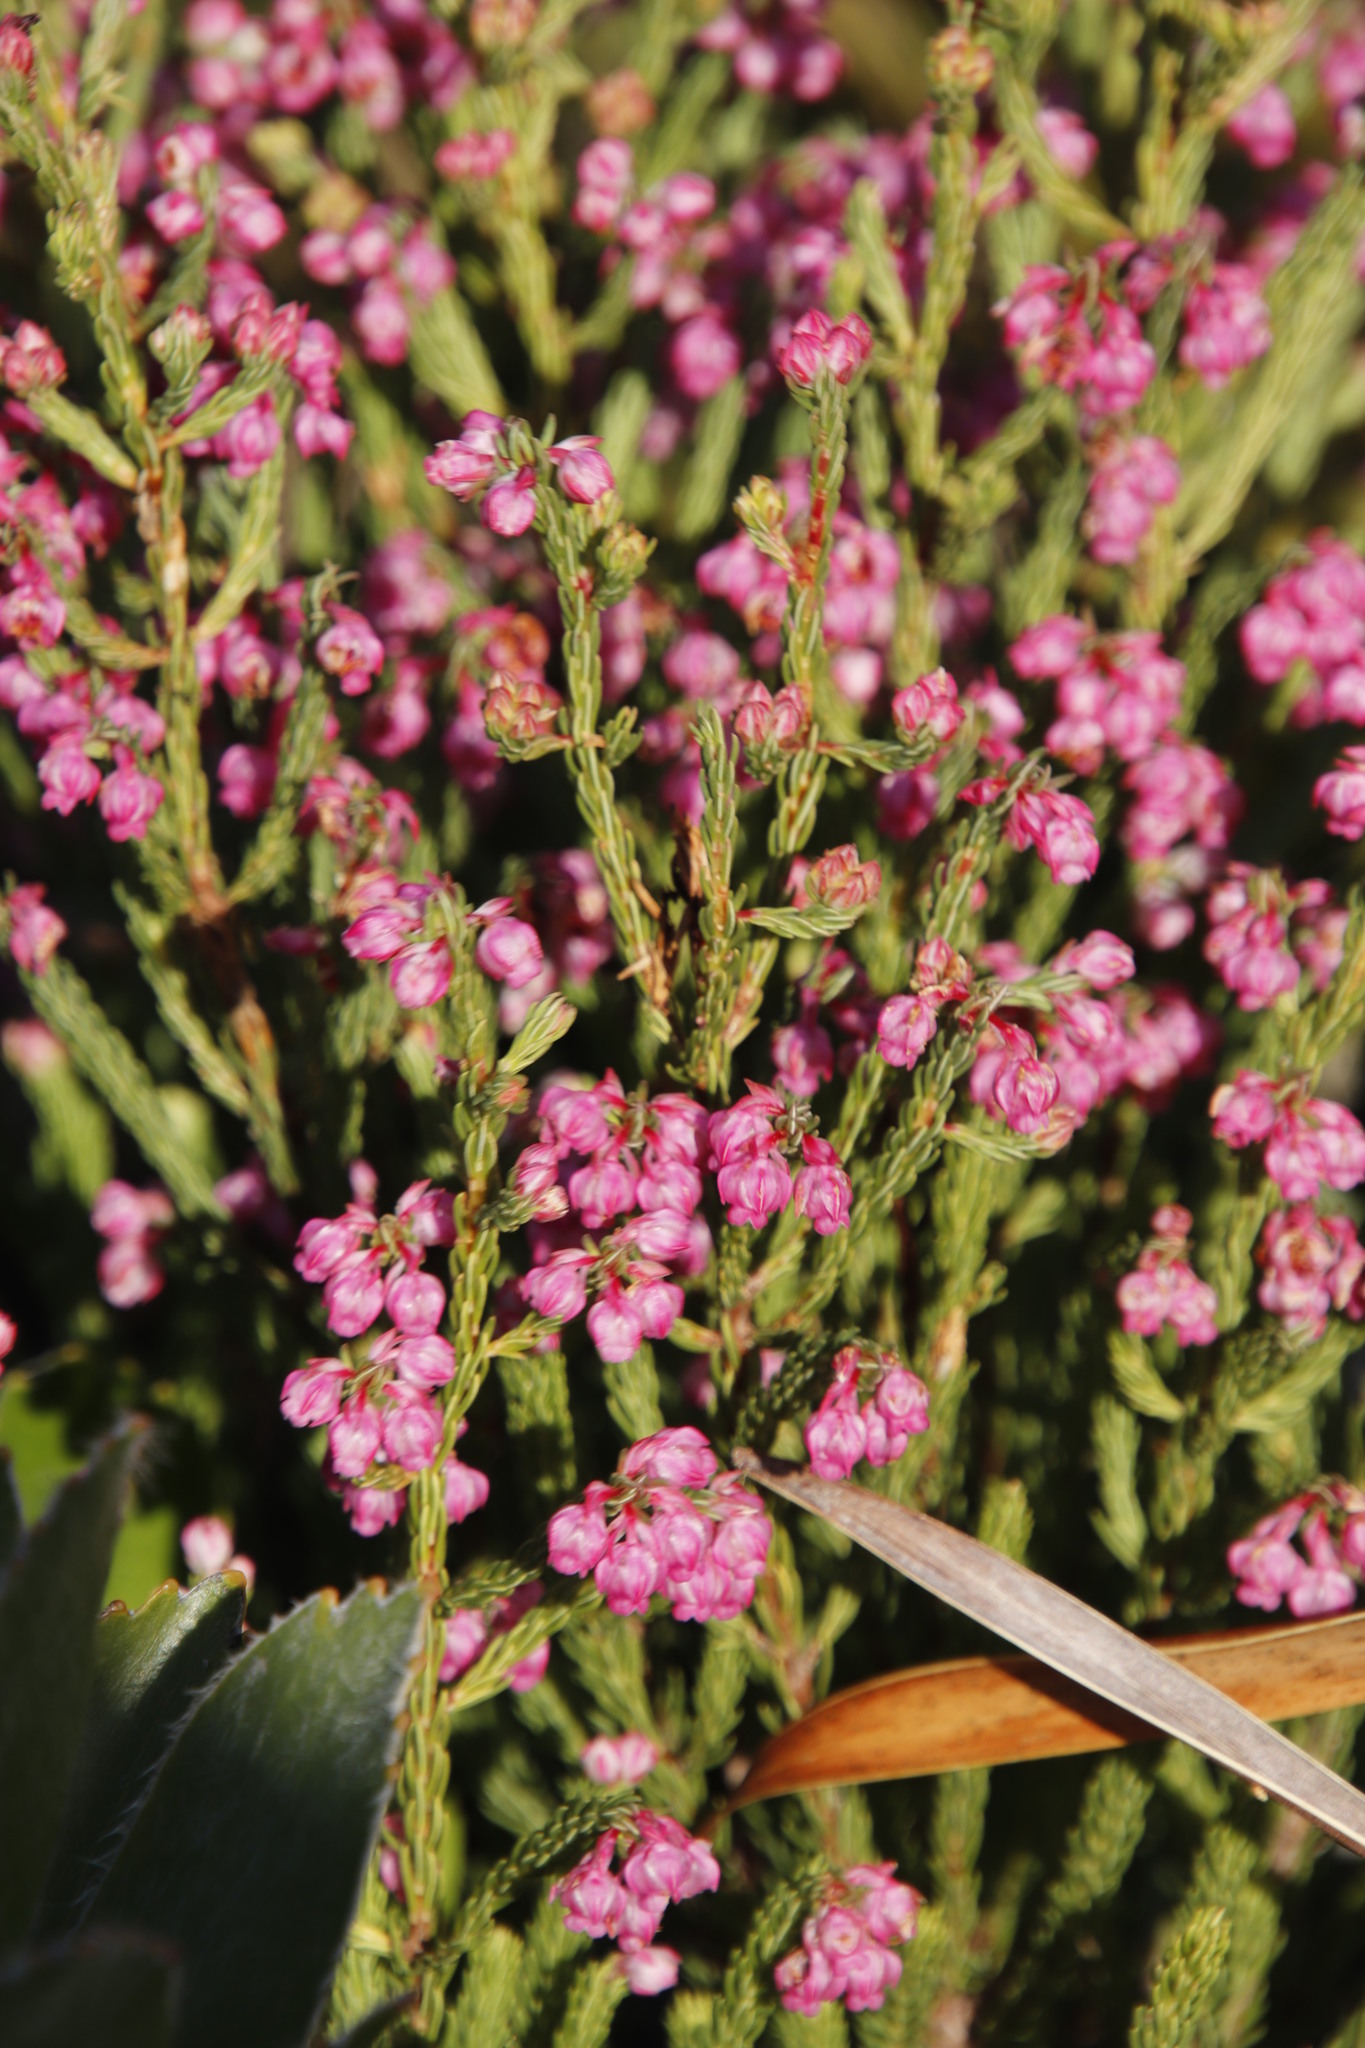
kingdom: Plantae
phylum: Tracheophyta
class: Magnoliopsida
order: Ericales
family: Ericaceae
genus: Erica
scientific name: Erica baccans
